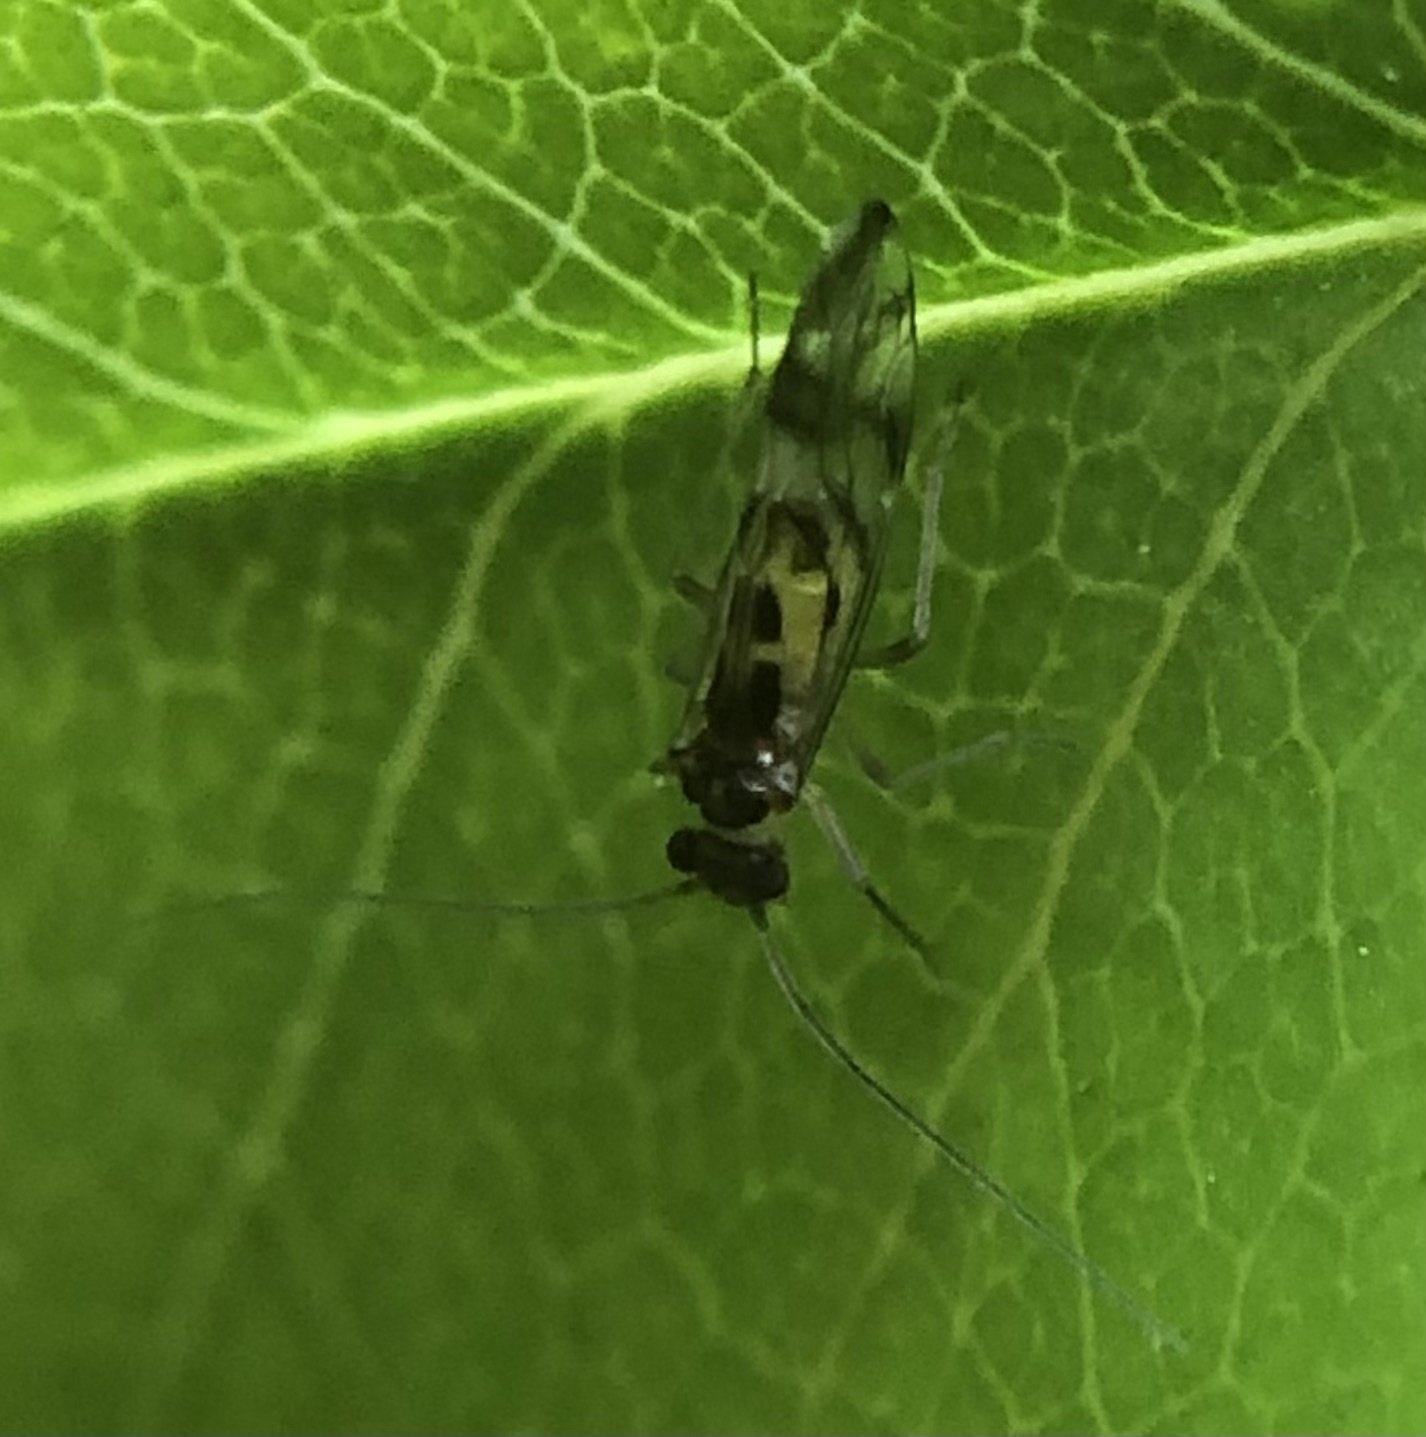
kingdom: Animalia
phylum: Arthropoda
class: Insecta
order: Psocodea
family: Stenopsocidae
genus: Graphopsocus
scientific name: Graphopsocus cruciatus
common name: Lizard bark louse
